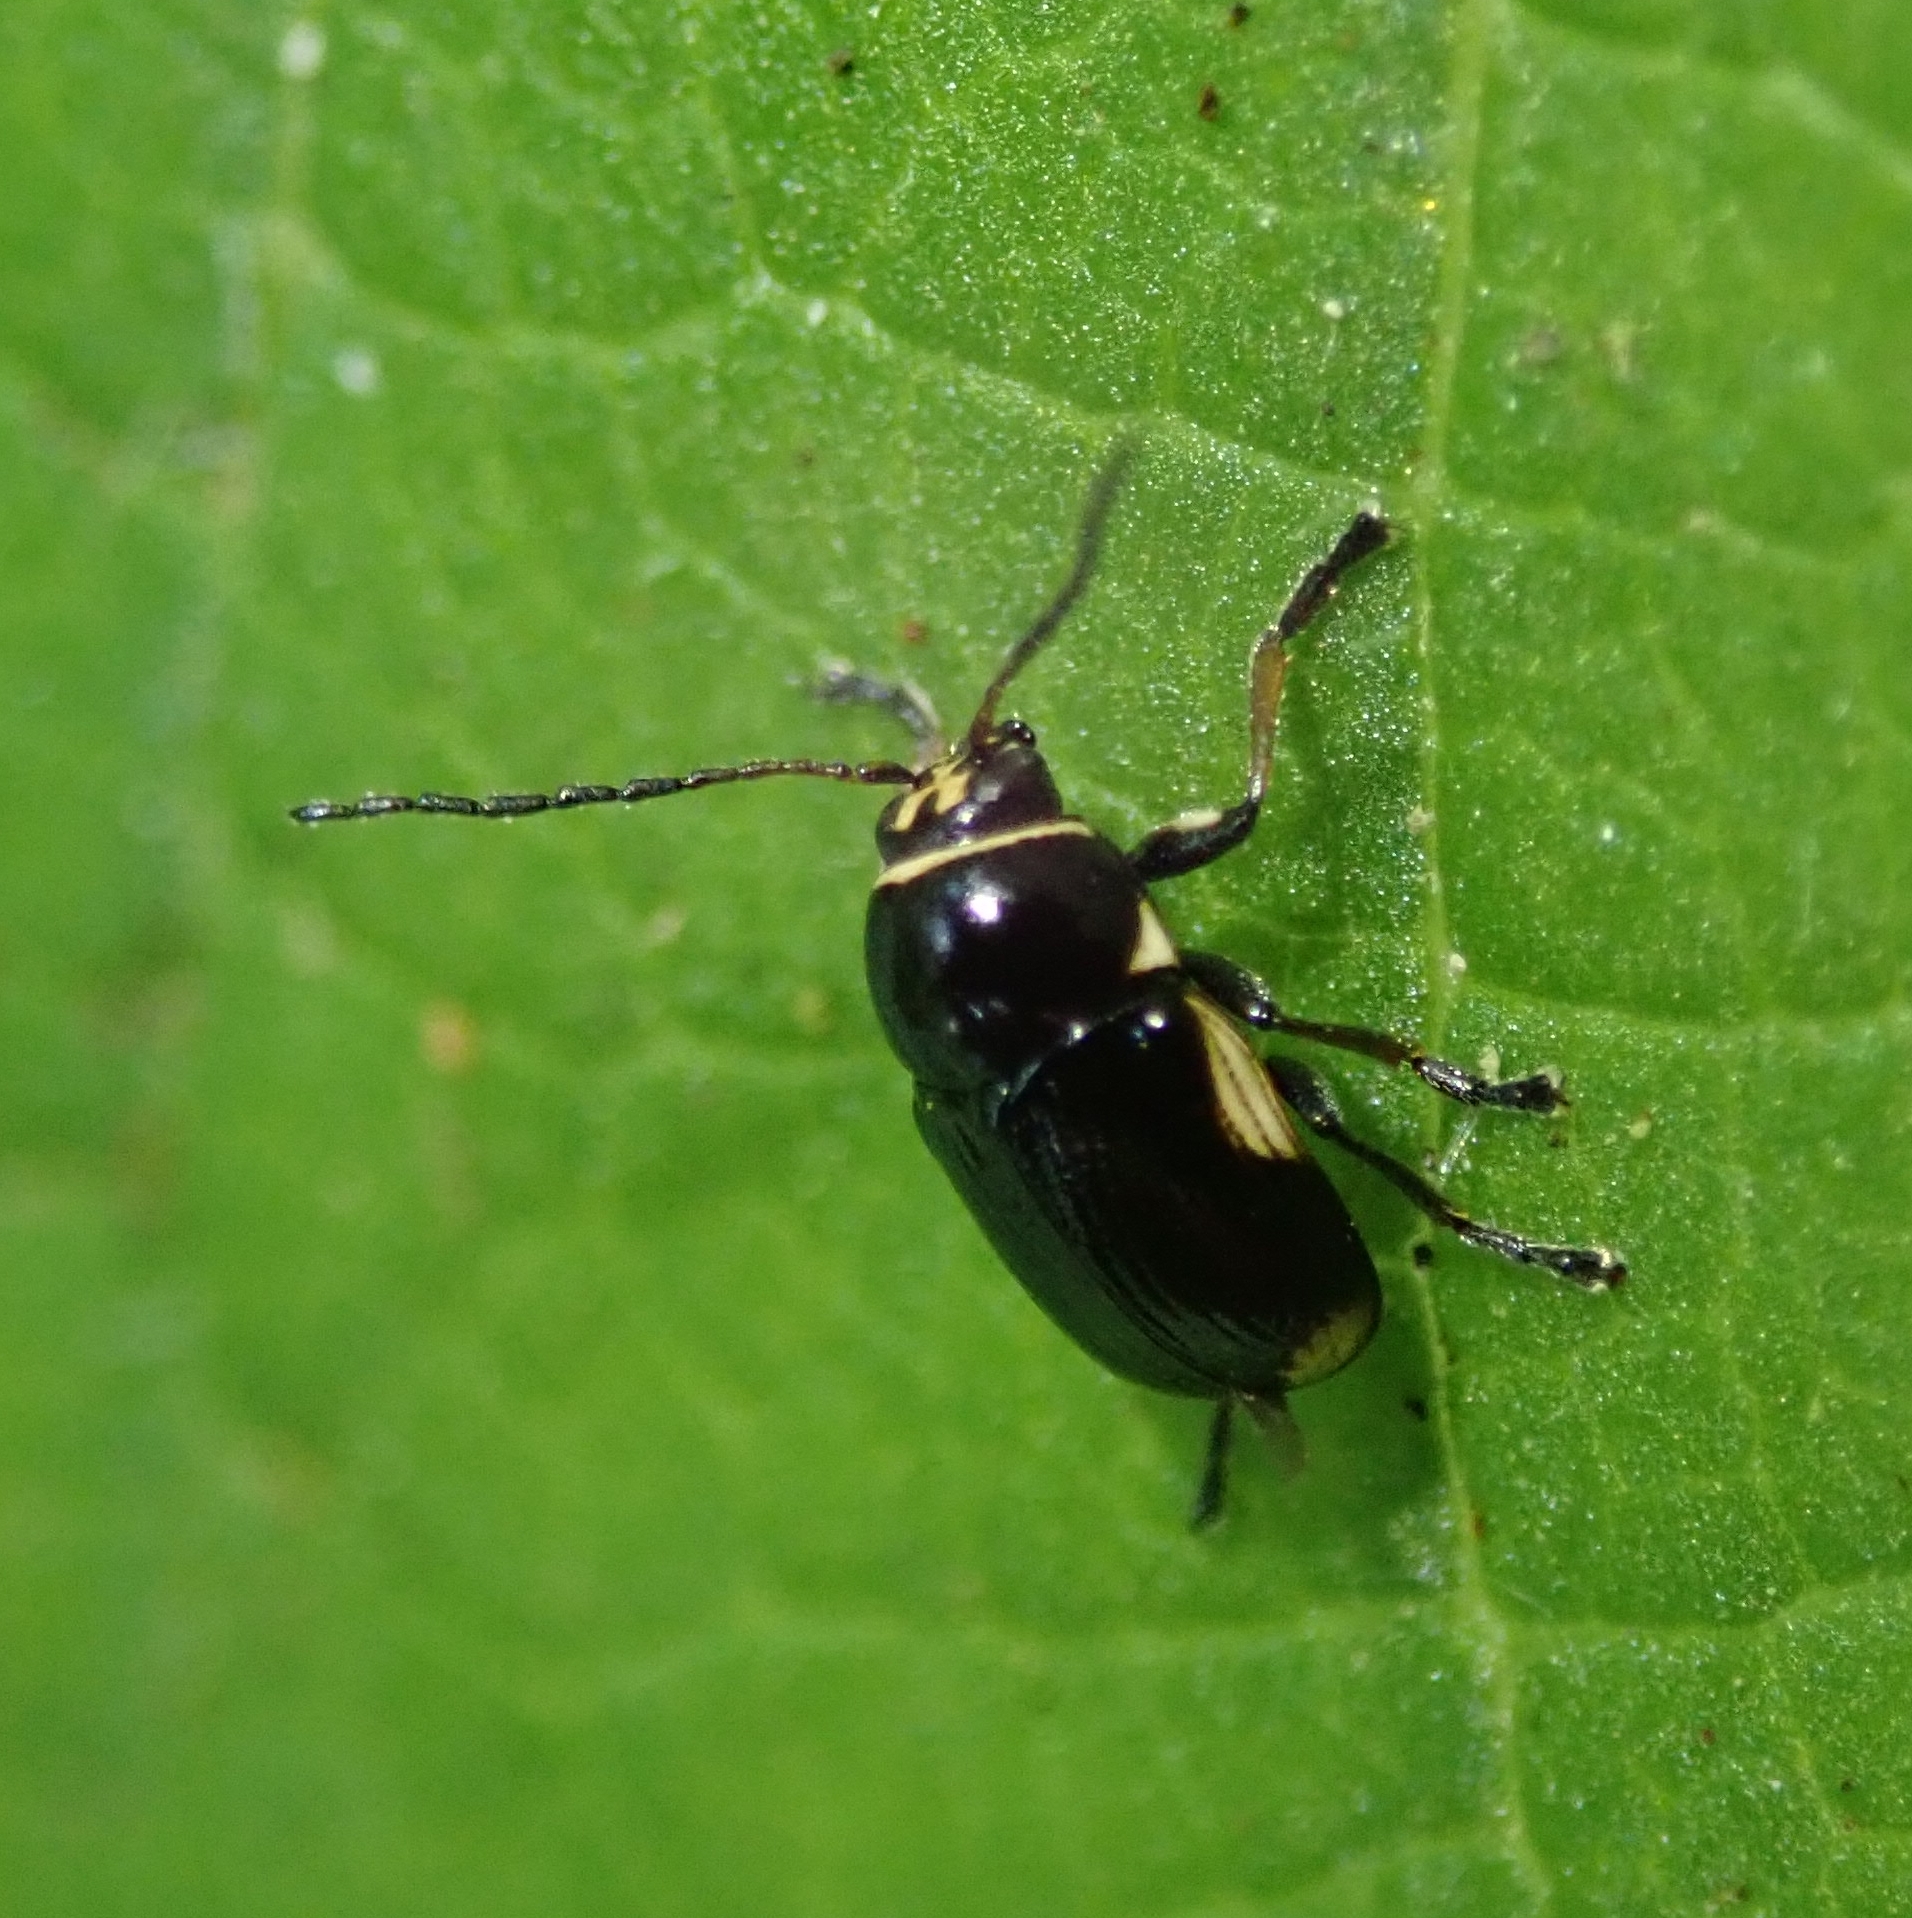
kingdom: Animalia
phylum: Arthropoda
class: Insecta
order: Coleoptera
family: Chrysomelidae
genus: Cryptocephalus
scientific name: Cryptocephalus moraei
